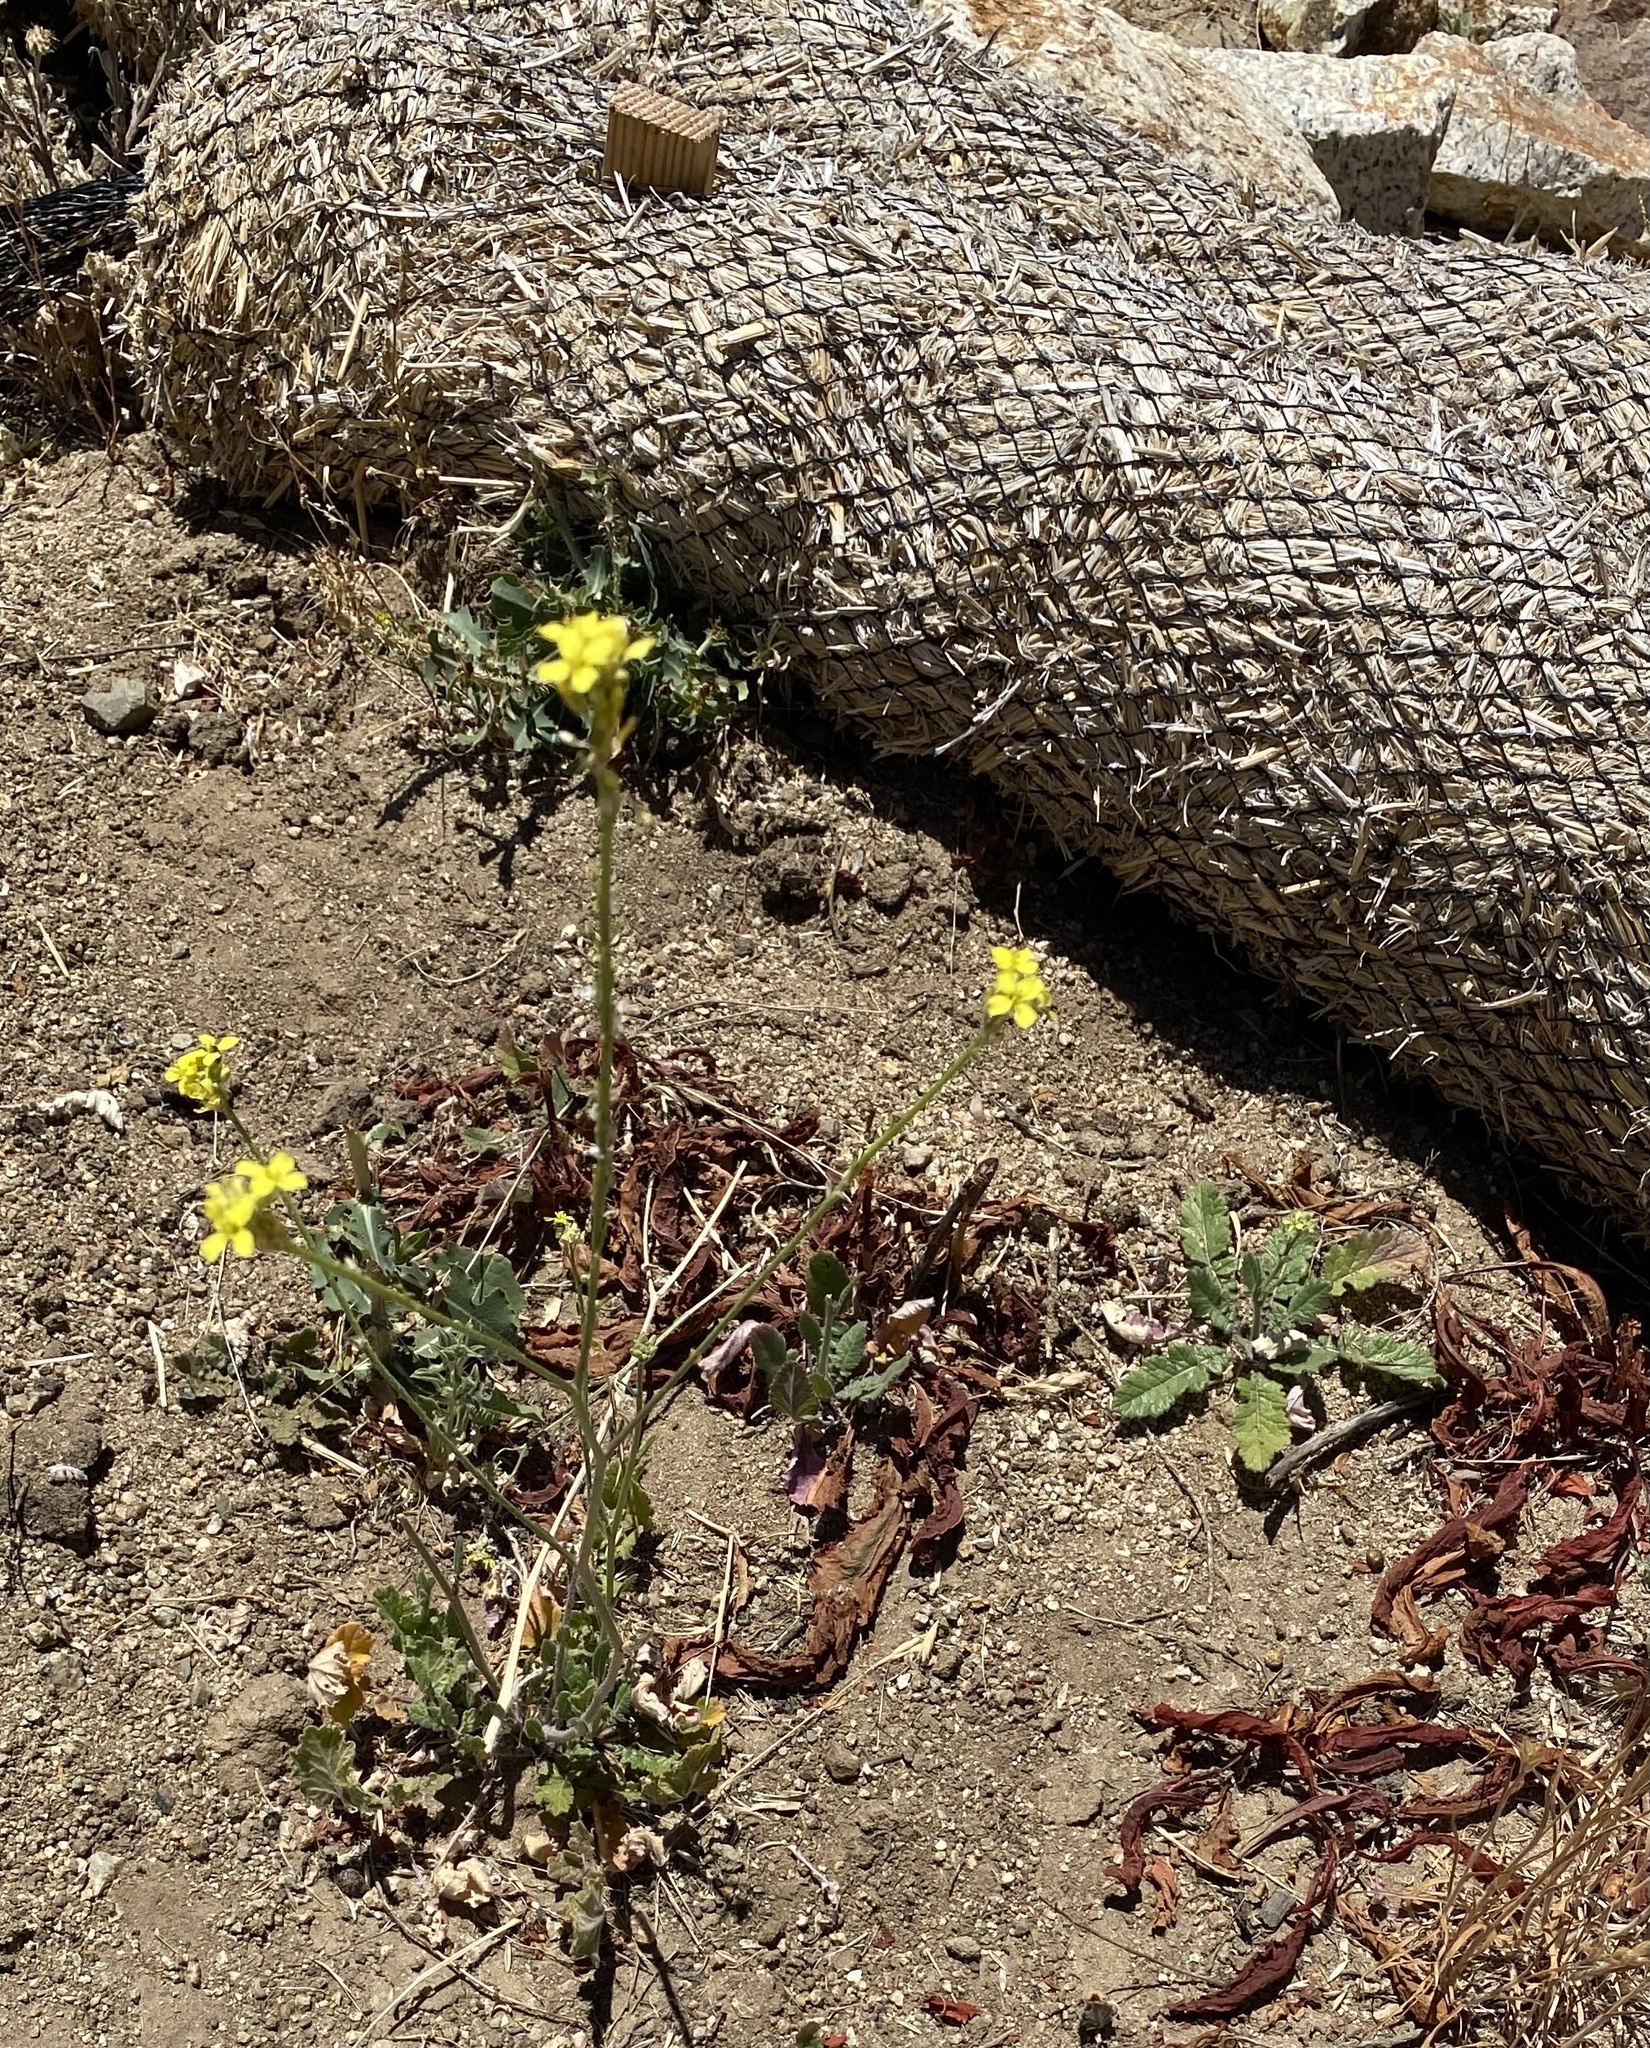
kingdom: Plantae
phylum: Tracheophyta
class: Magnoliopsida
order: Brassicales
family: Brassicaceae
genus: Hirschfeldia
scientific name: Hirschfeldia incana
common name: Hoary mustard
